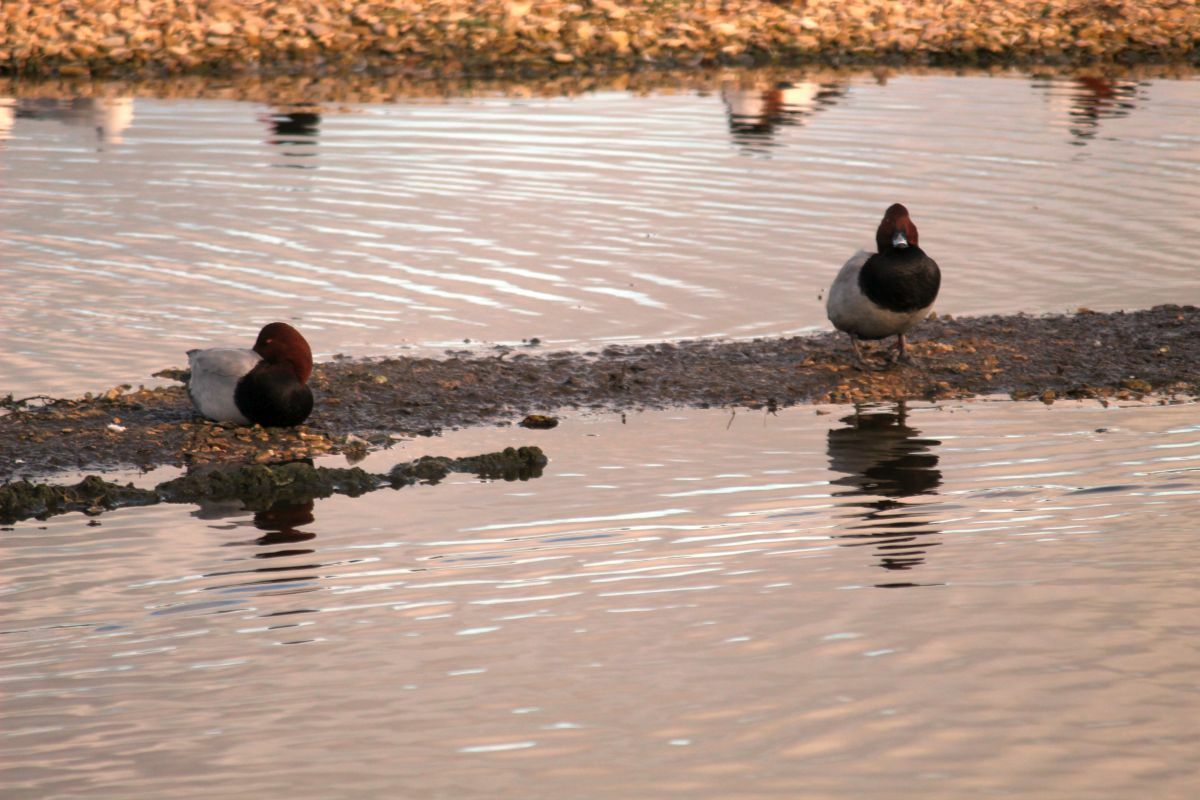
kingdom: Animalia
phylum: Chordata
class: Aves
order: Anseriformes
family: Anatidae
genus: Aythya
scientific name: Aythya ferina
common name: Common pochard
